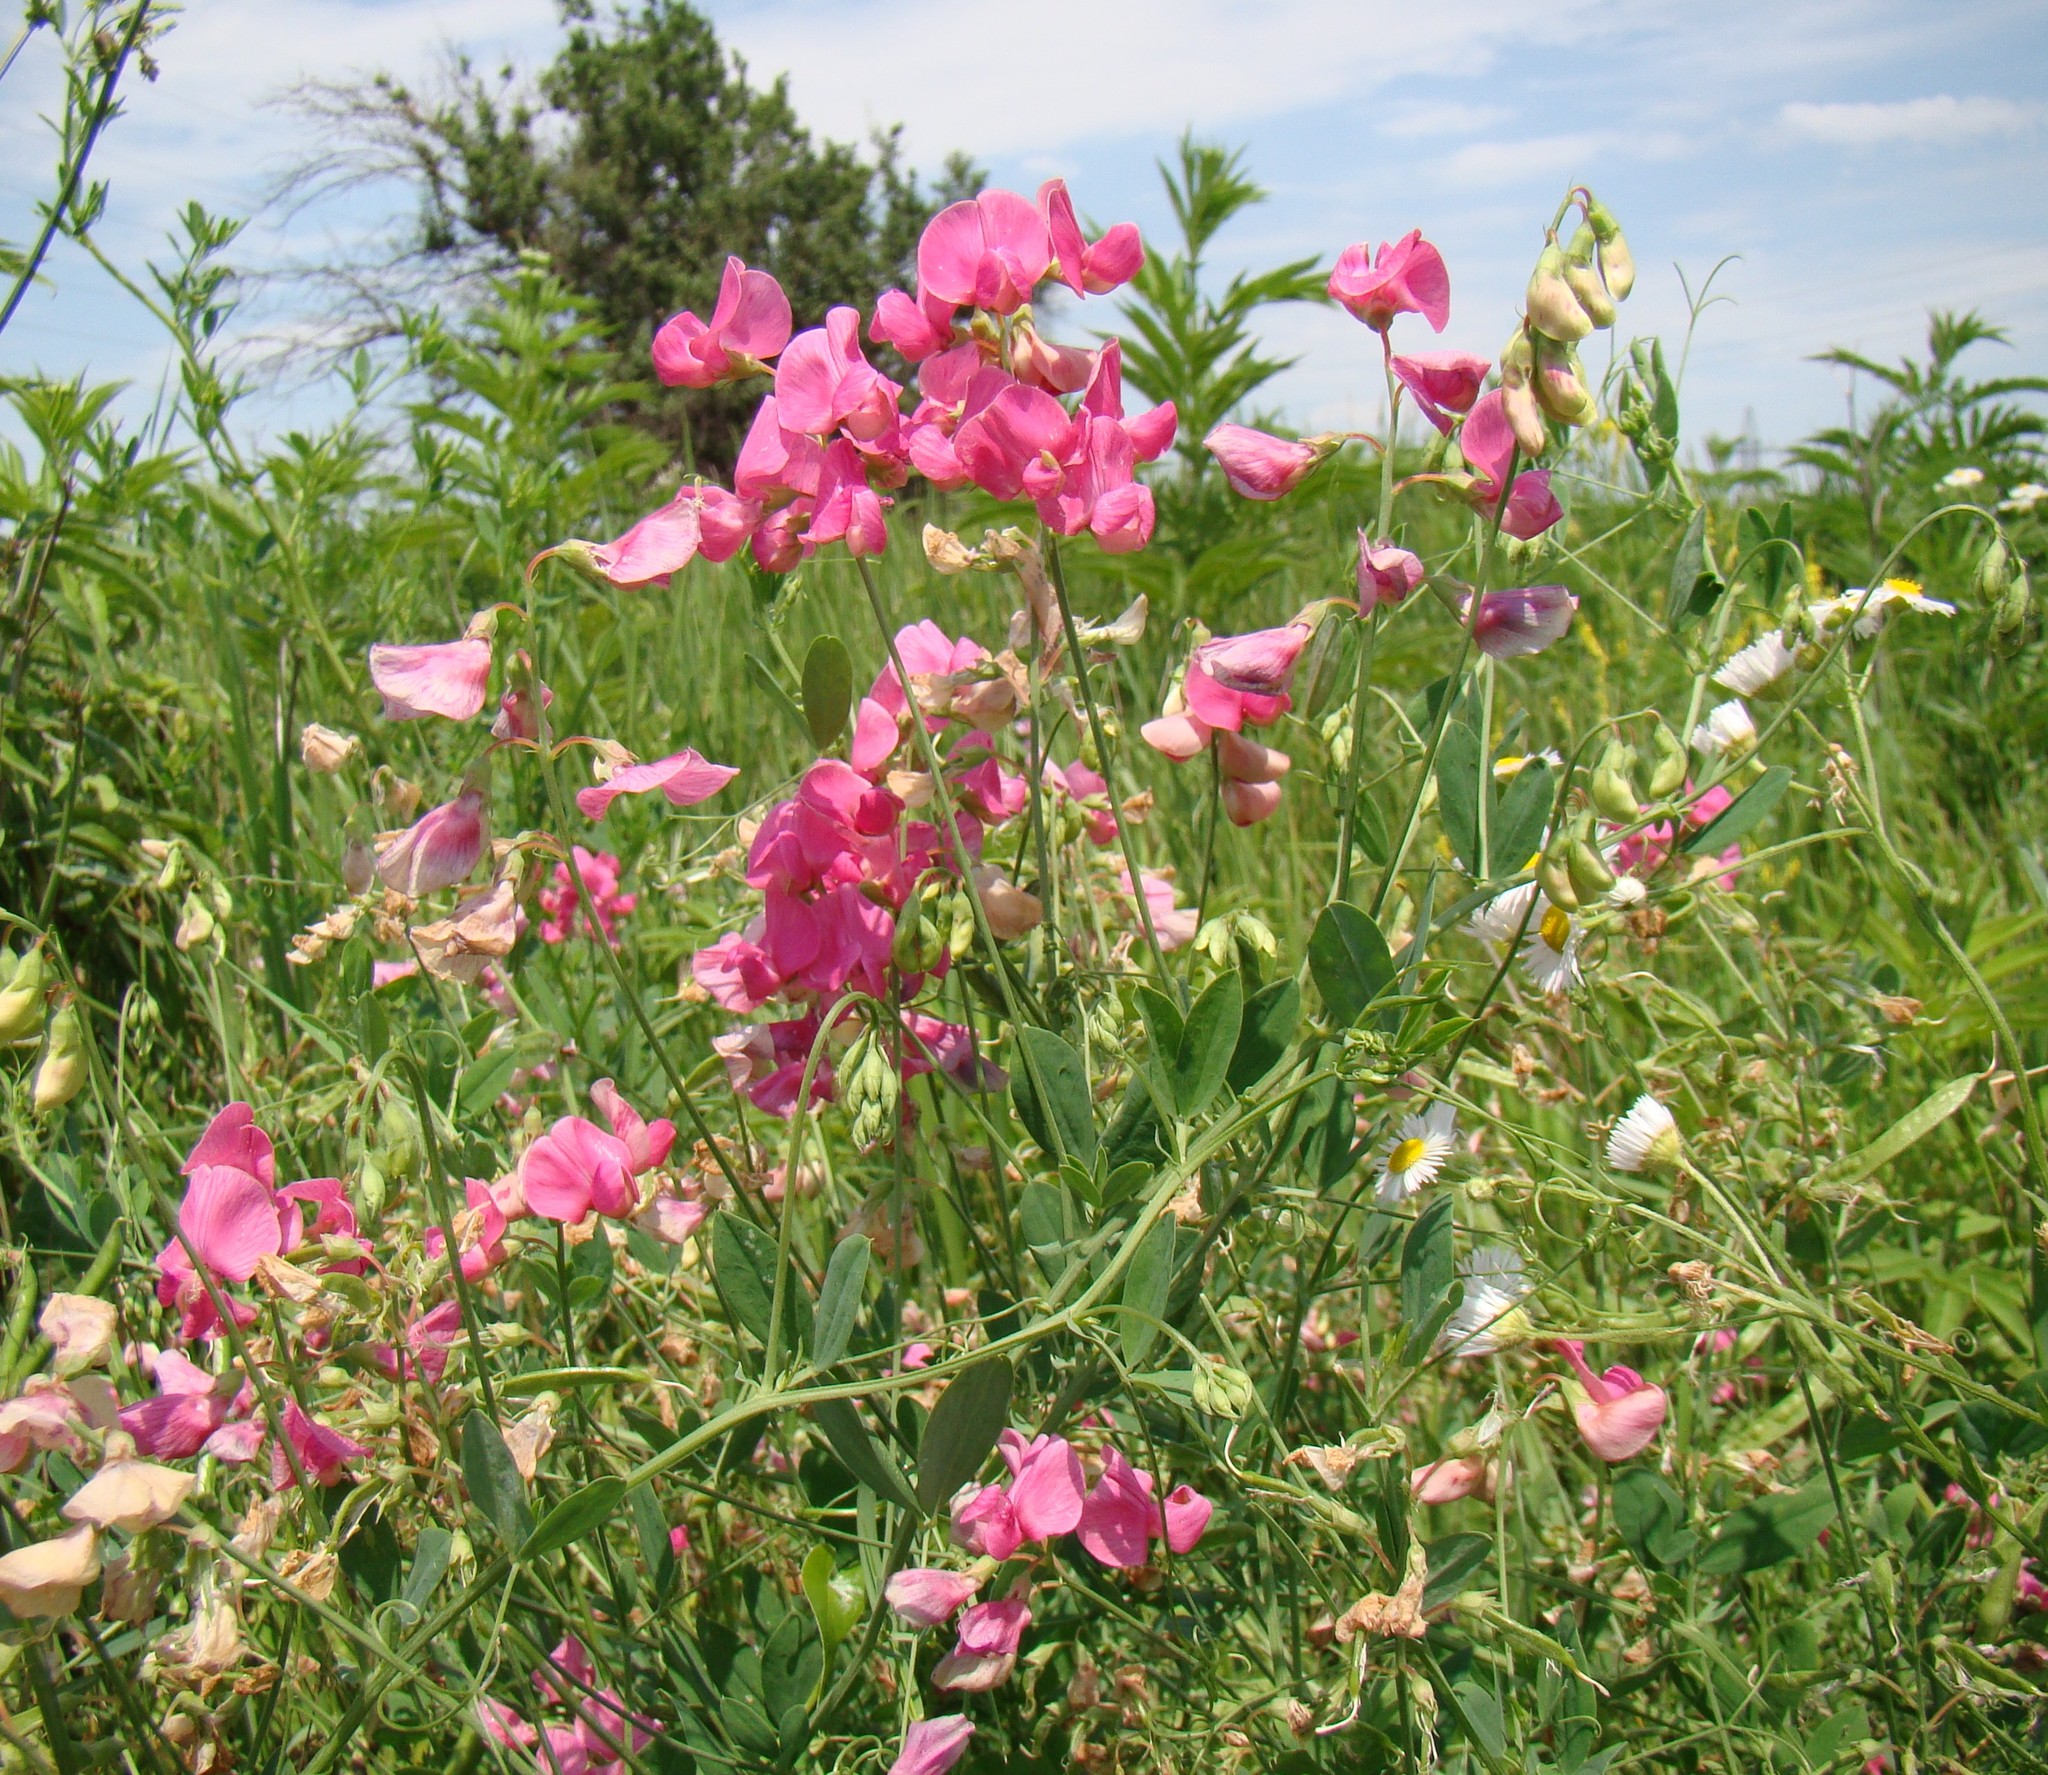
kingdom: Plantae
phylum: Tracheophyta
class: Magnoliopsida
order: Fabales
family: Fabaceae
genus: Lathyrus
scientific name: Lathyrus tuberosus
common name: Tuberous pea
